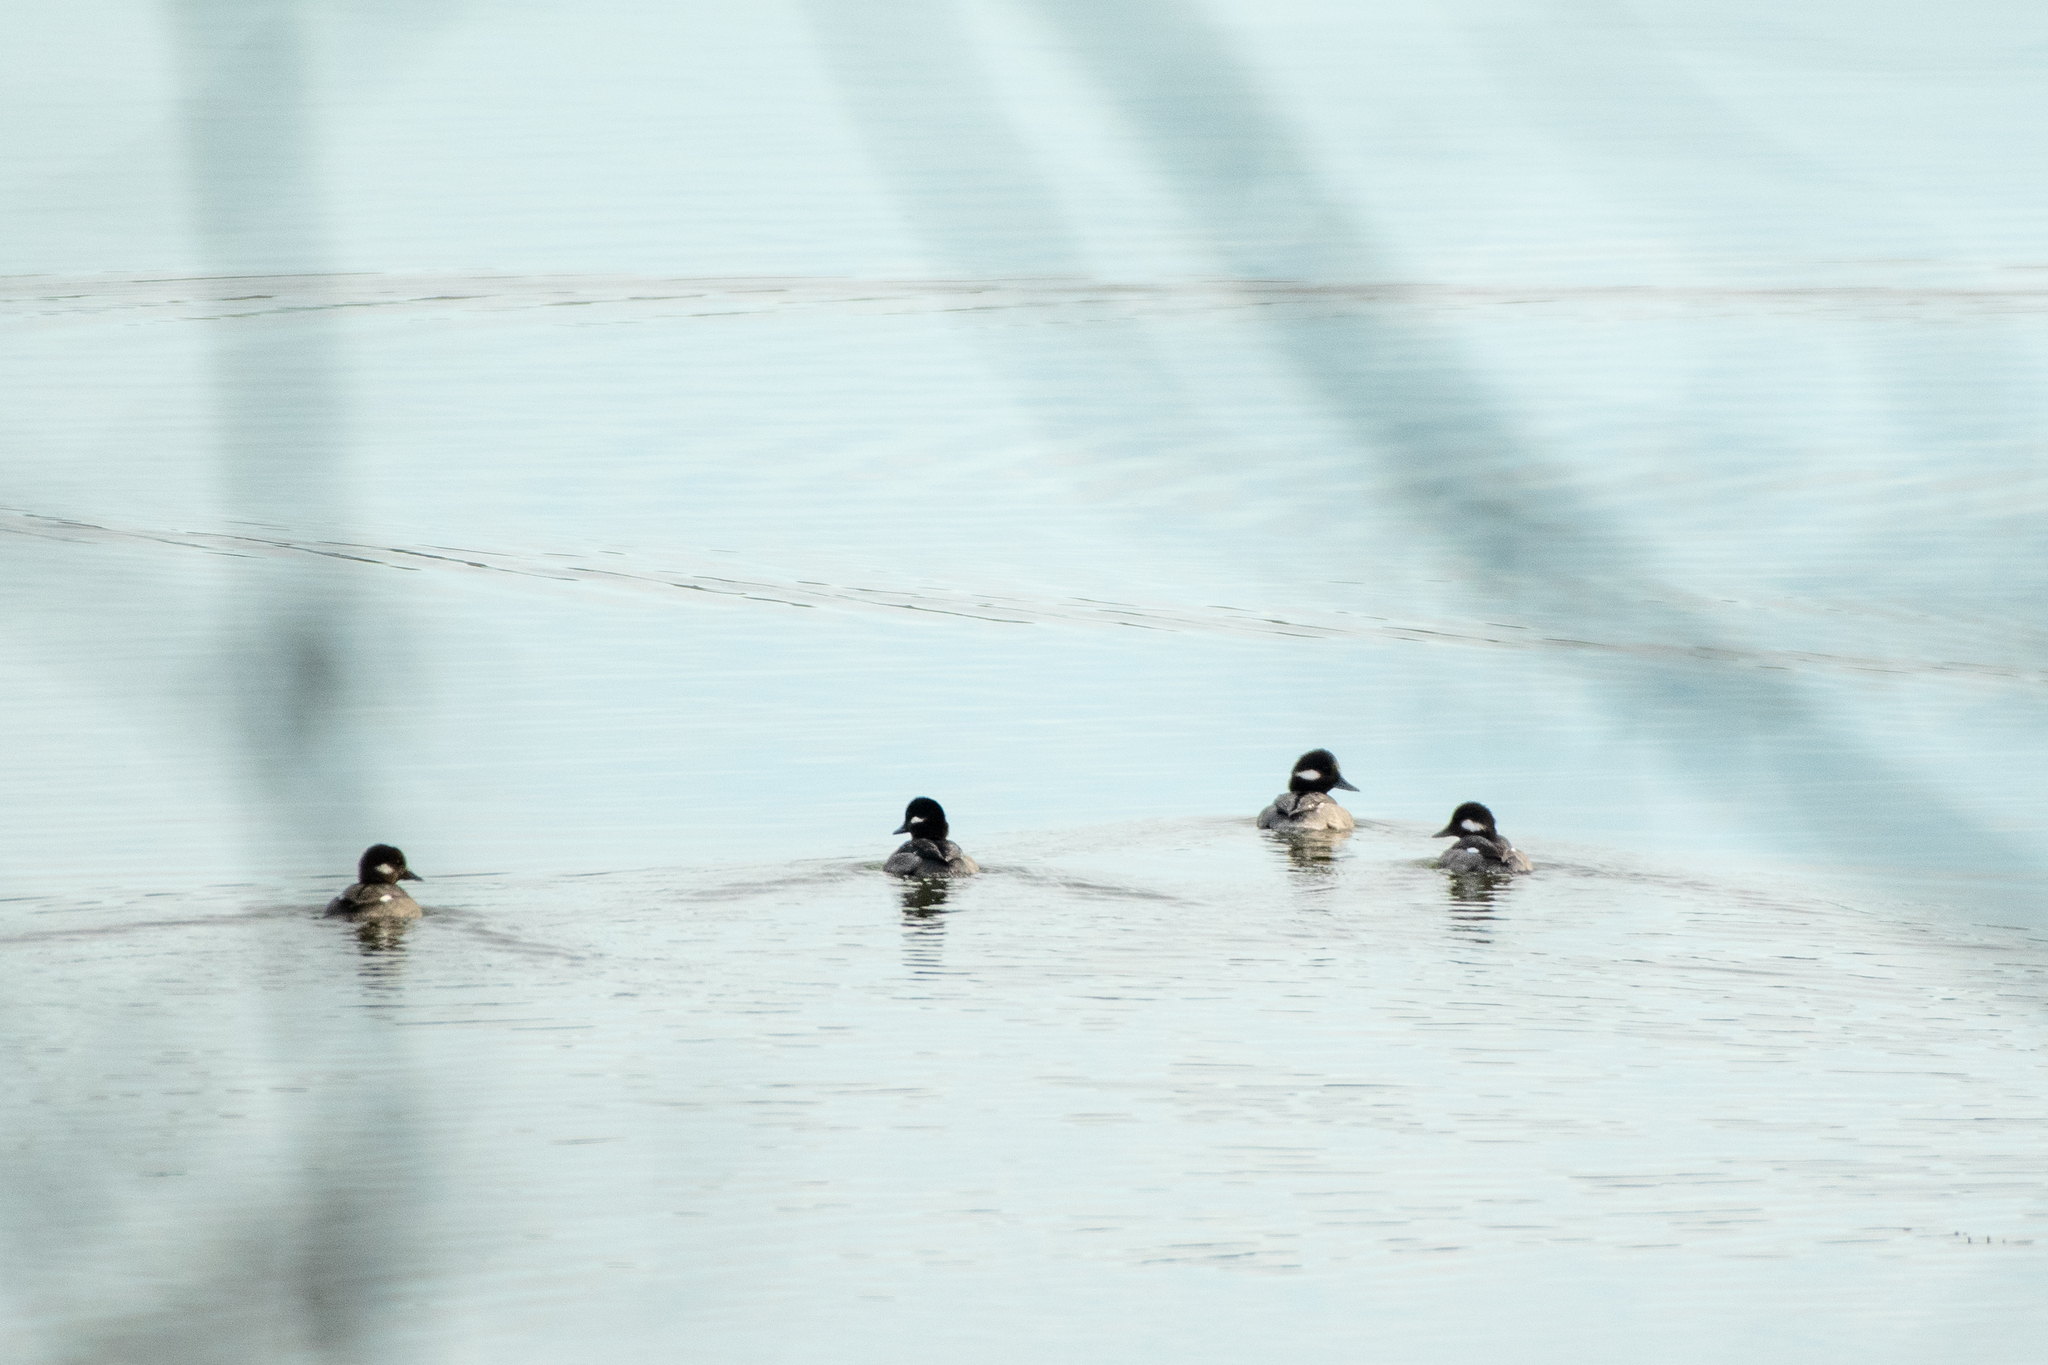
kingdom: Animalia
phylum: Chordata
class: Aves
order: Anseriformes
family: Anatidae
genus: Bucephala
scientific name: Bucephala albeola
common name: Bufflehead
